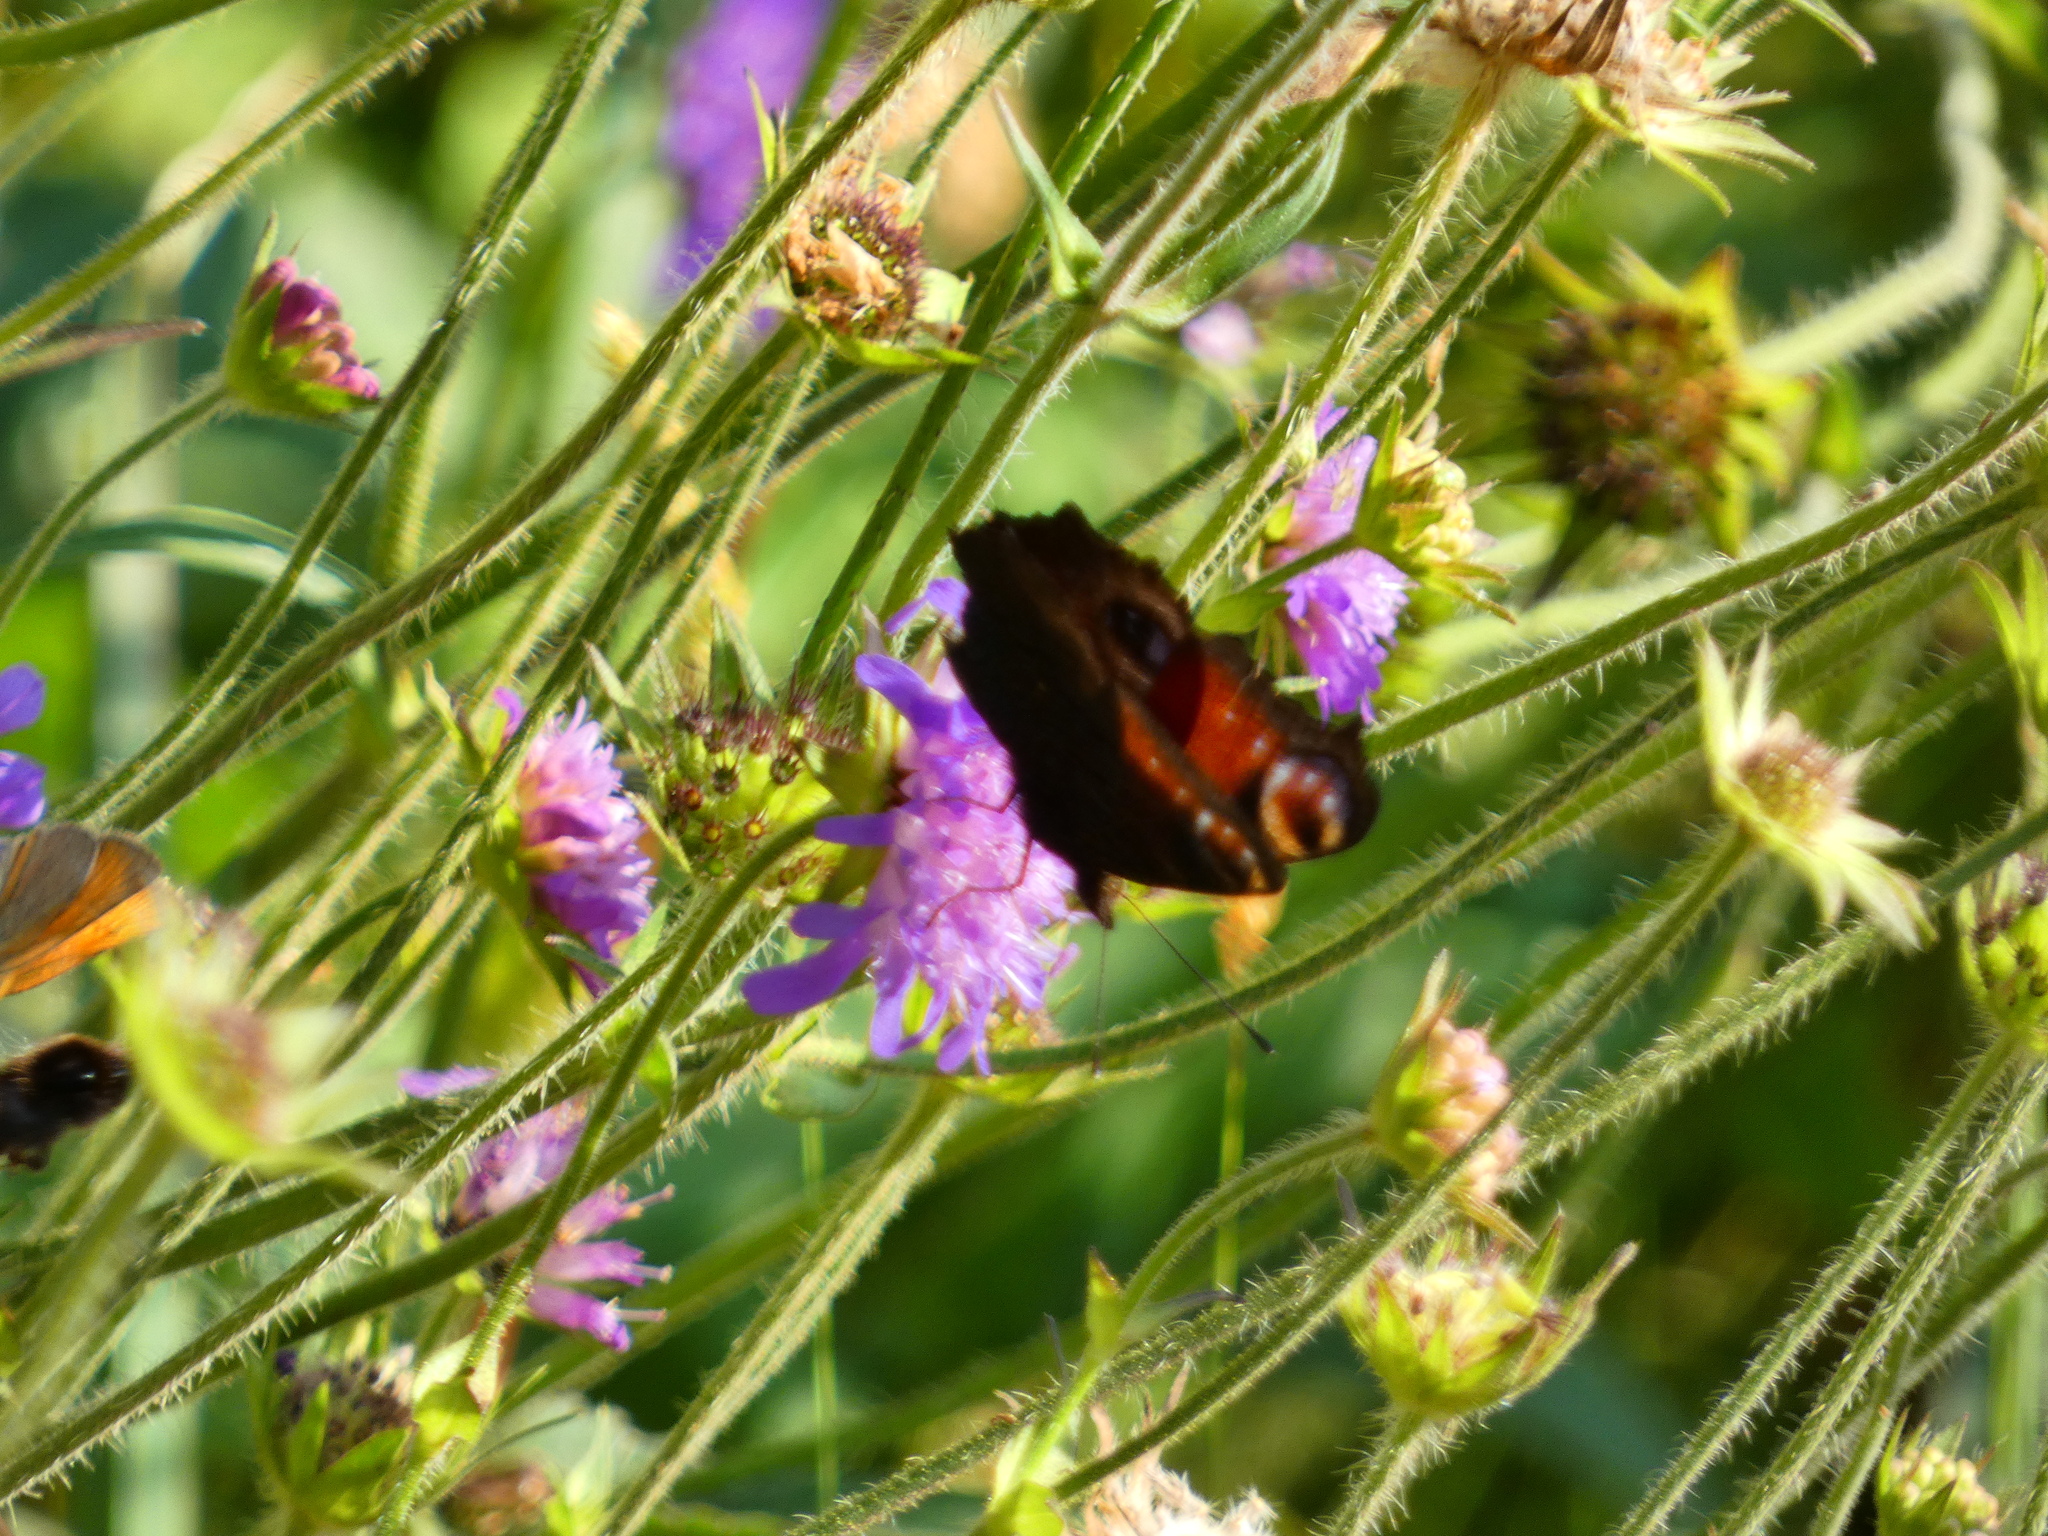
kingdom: Animalia
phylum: Arthropoda
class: Insecta
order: Lepidoptera
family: Nymphalidae
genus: Aglais
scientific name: Aglais io
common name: Peacock
